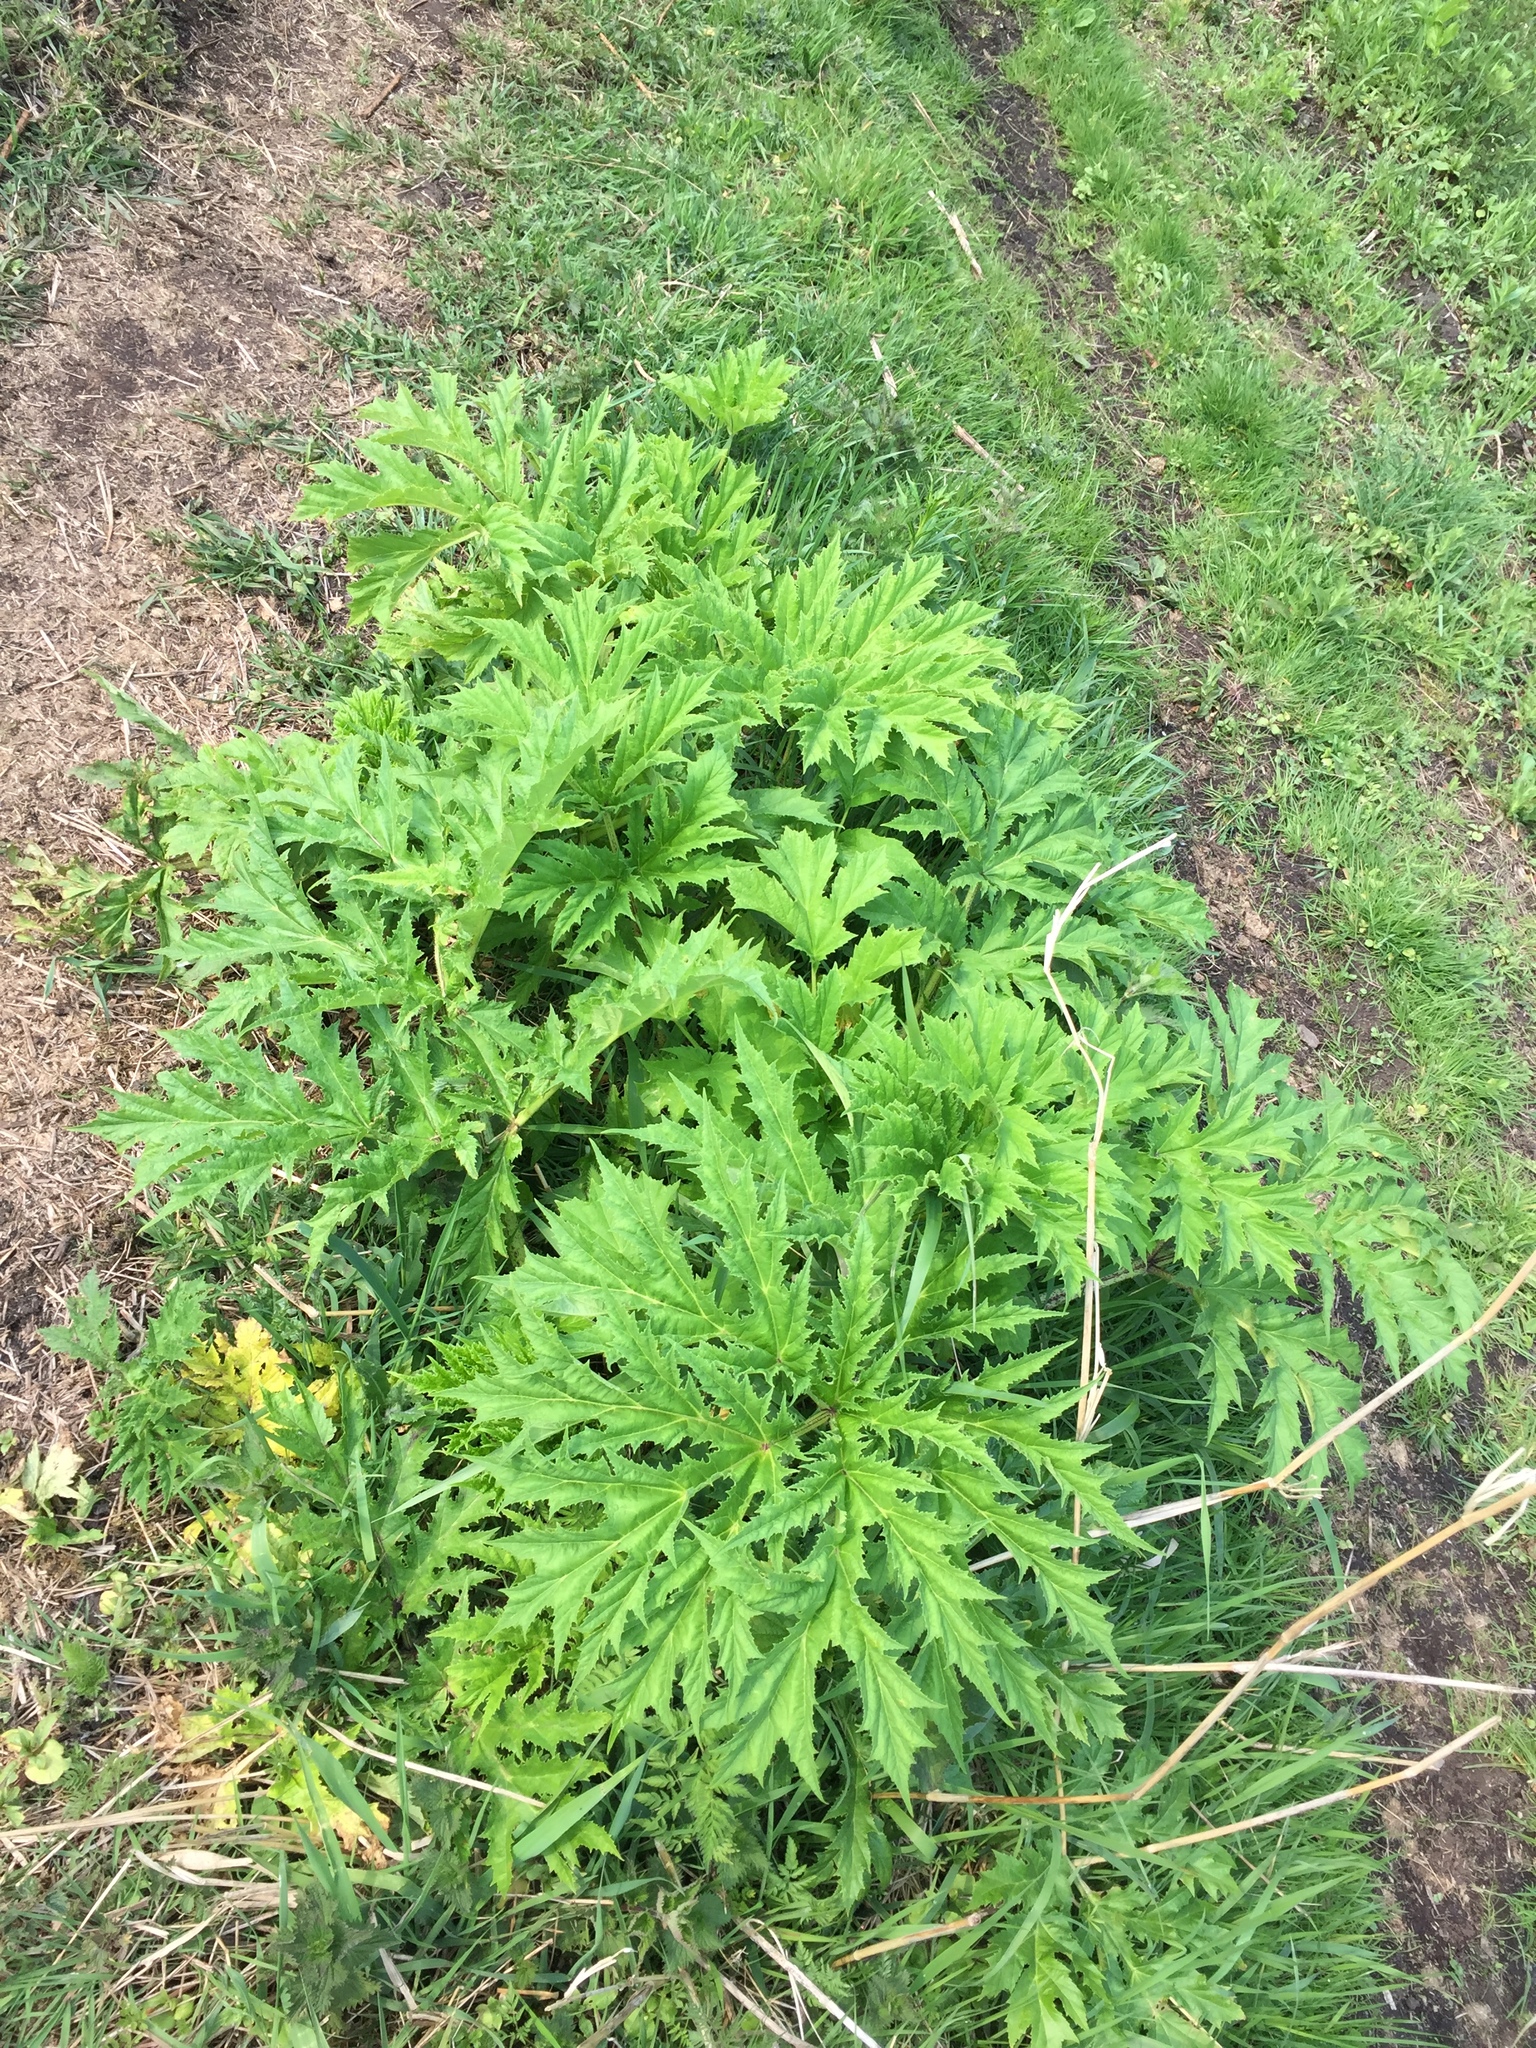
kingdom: Plantae
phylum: Tracheophyta
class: Magnoliopsida
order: Apiales
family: Apiaceae
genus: Heracleum
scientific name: Heracleum mantegazzianum
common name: Giant hogweed
